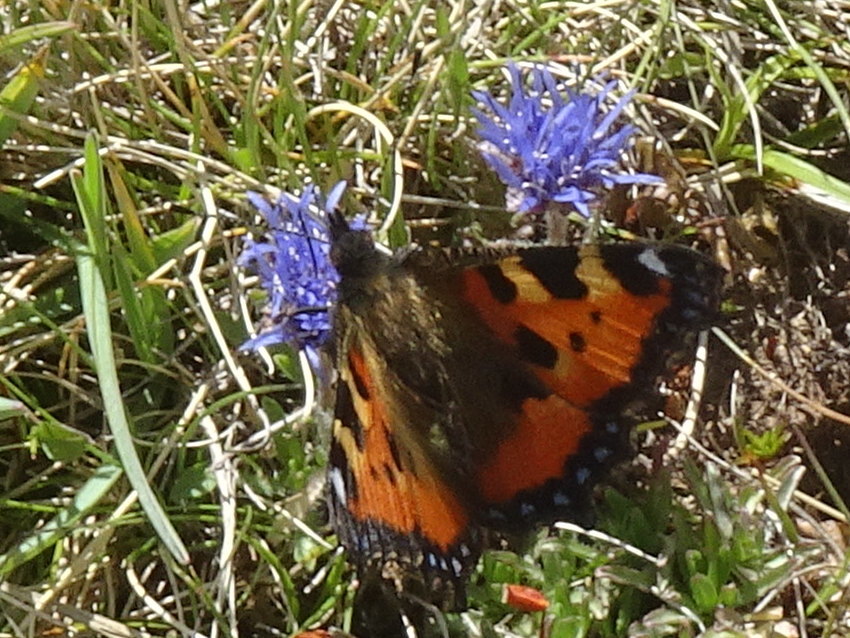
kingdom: Animalia
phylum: Arthropoda
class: Insecta
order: Lepidoptera
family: Nymphalidae
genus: Aglais
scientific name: Aglais urticae
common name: Small tortoiseshell
